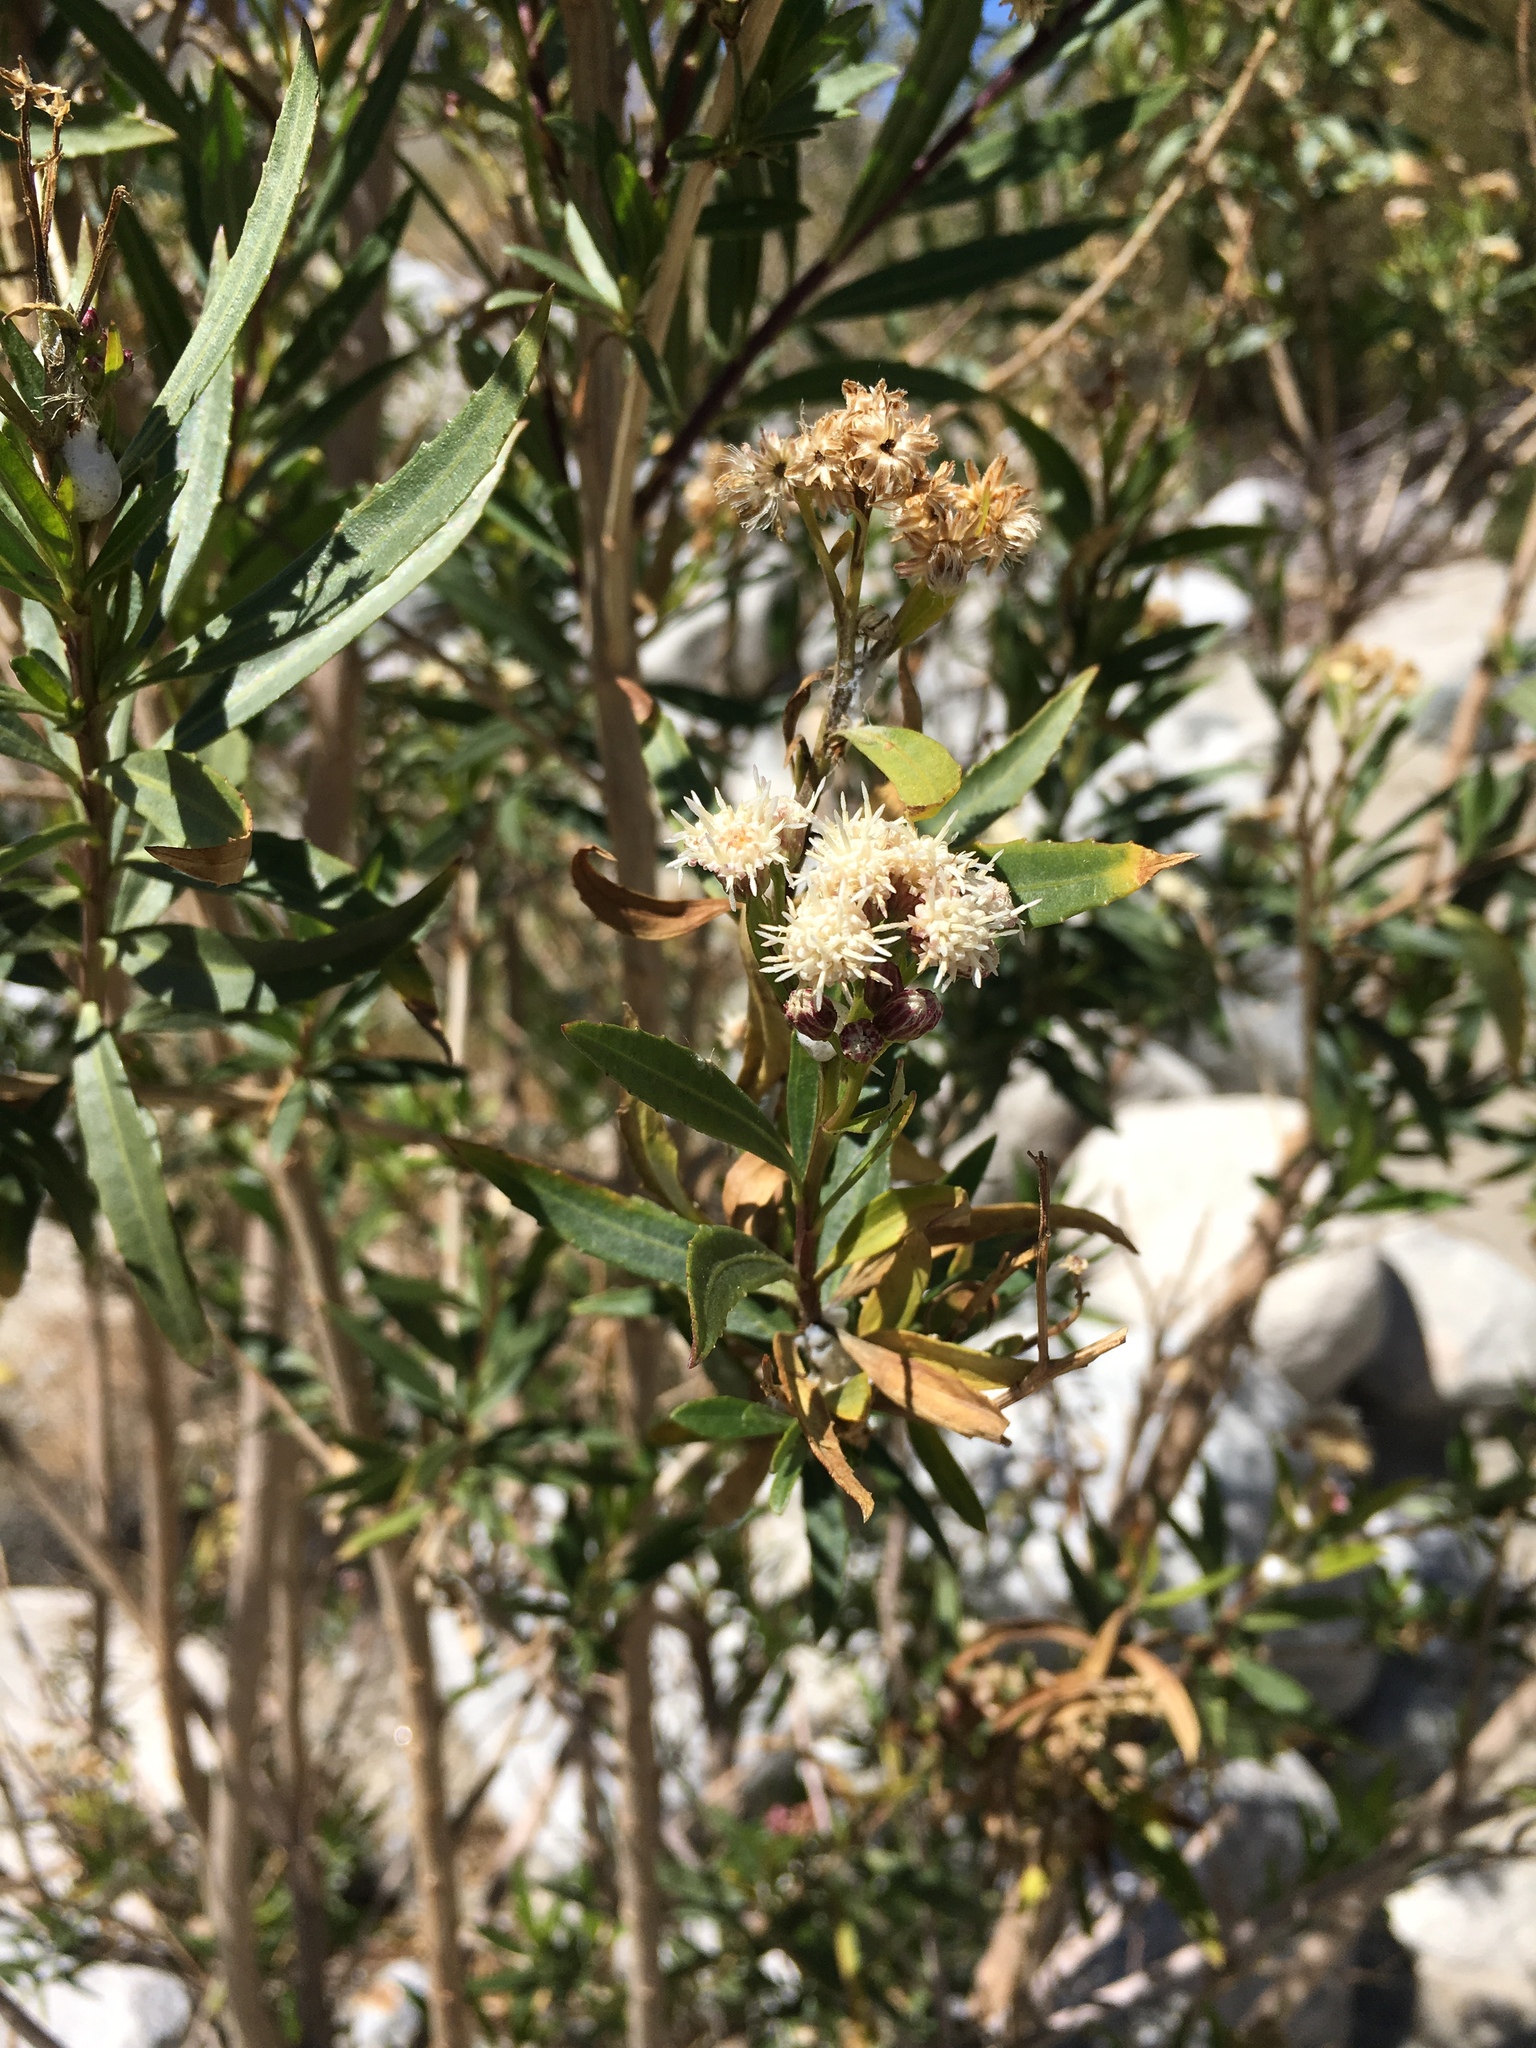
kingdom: Plantae
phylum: Tracheophyta
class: Magnoliopsida
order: Asterales
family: Asteraceae
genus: Baccharis
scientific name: Baccharis salicifolia
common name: Sticky baccharis
